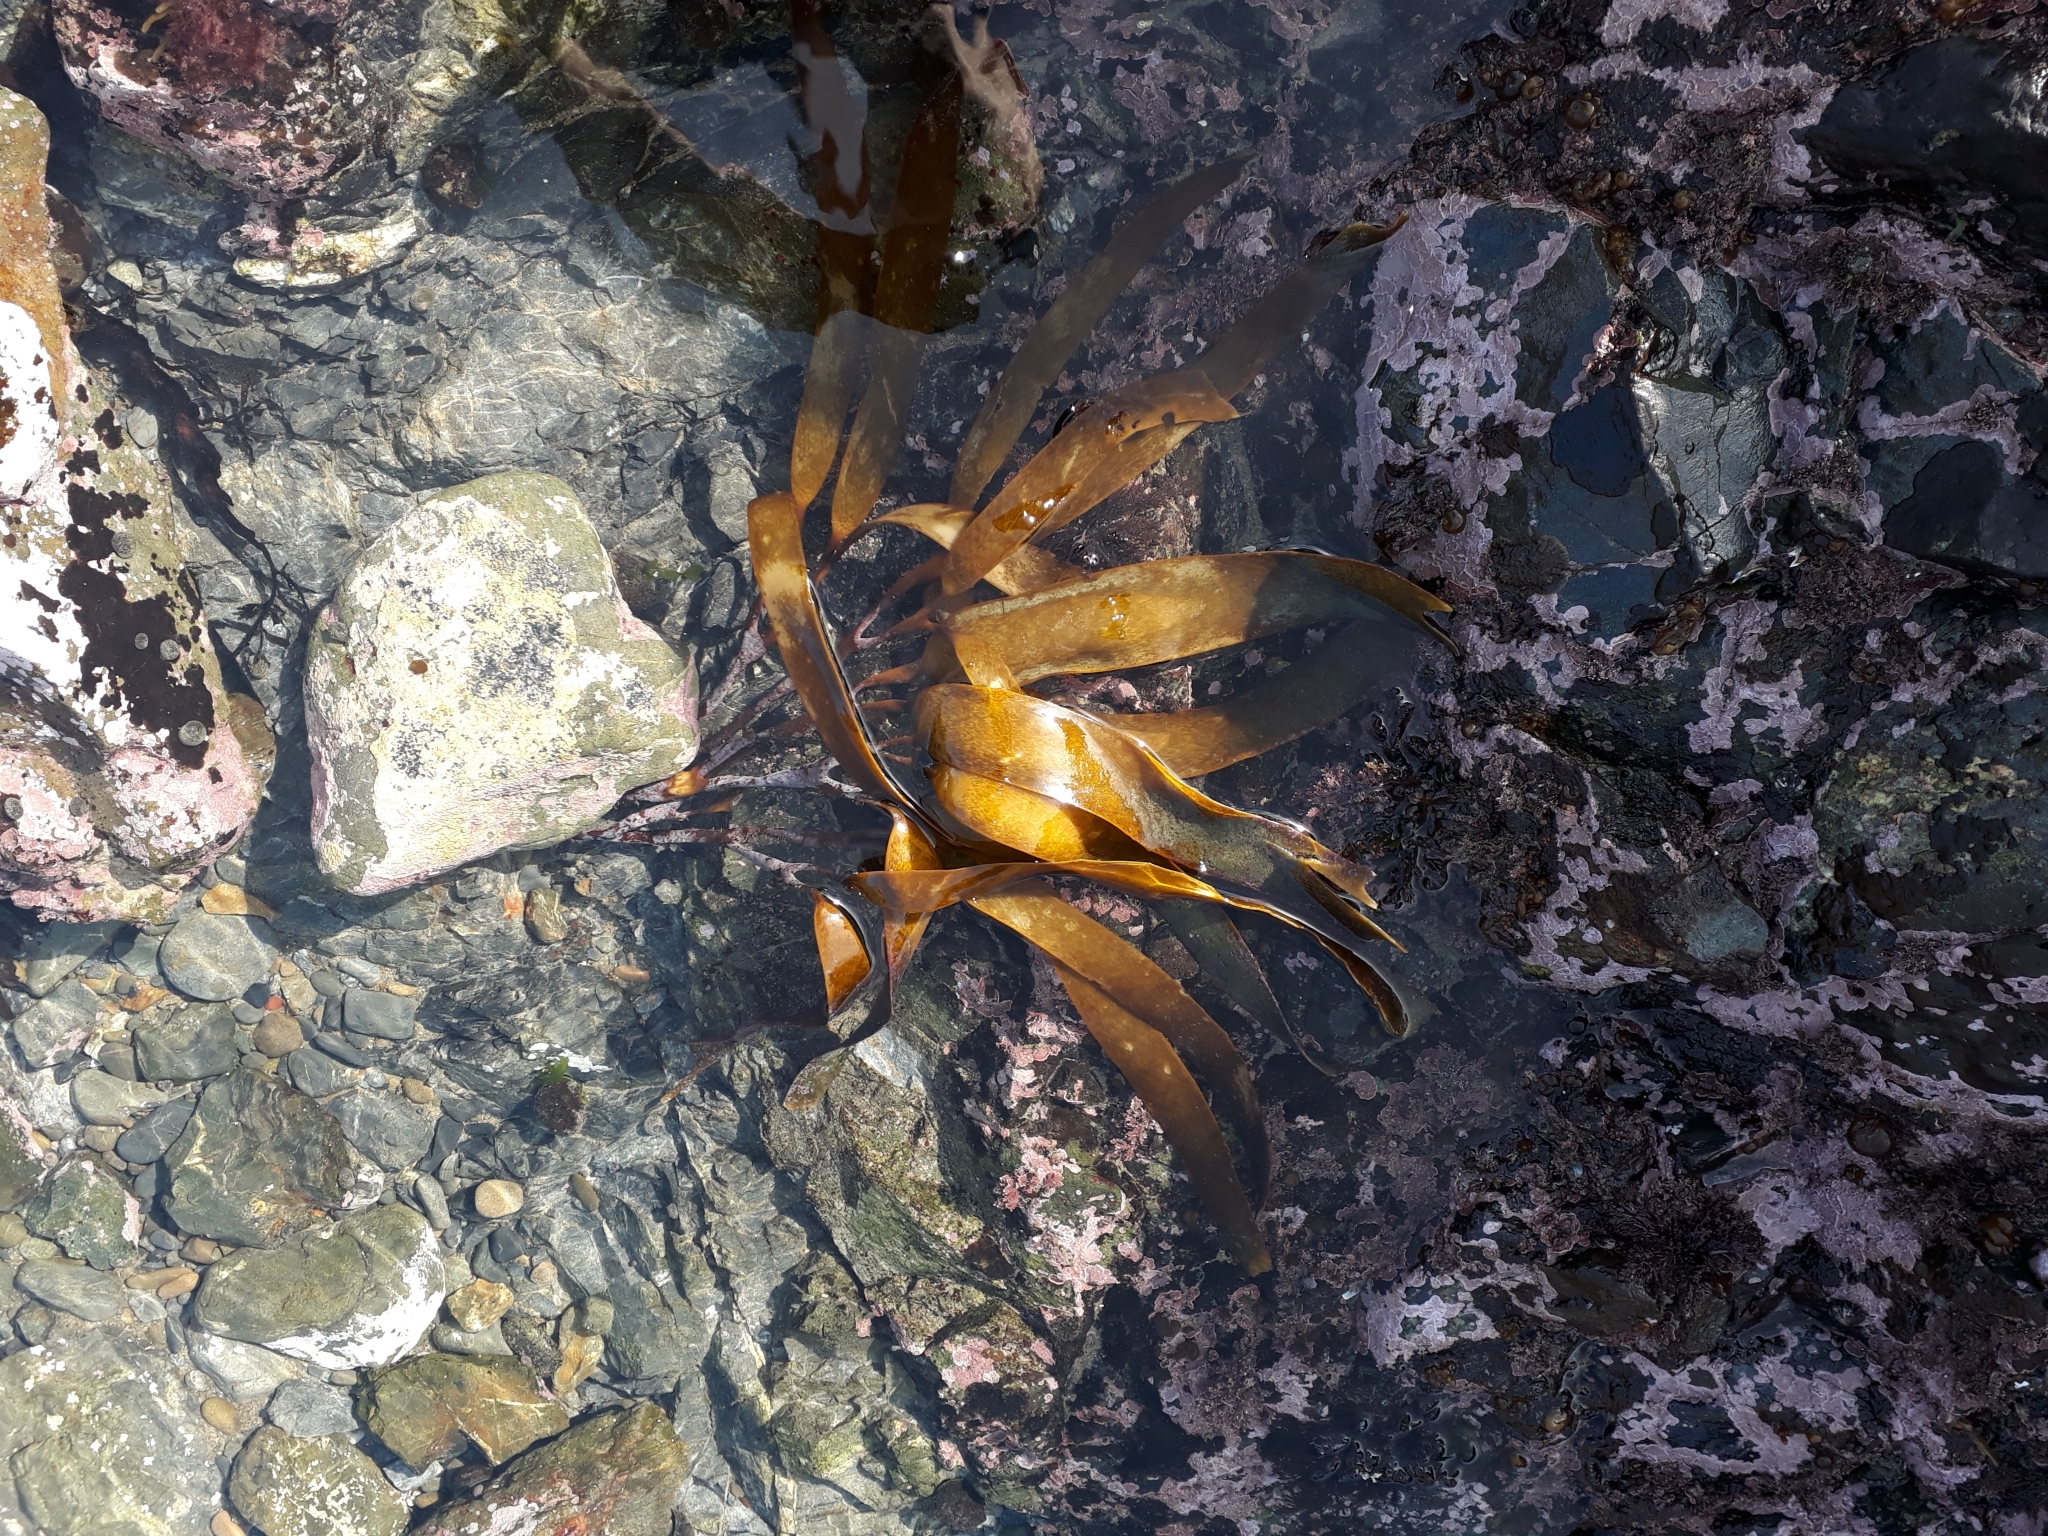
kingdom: Chromista
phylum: Ochrophyta
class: Phaeophyceae
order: Laminariales
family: Lessoniaceae
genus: Lessonia
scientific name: Lessonia variegata
